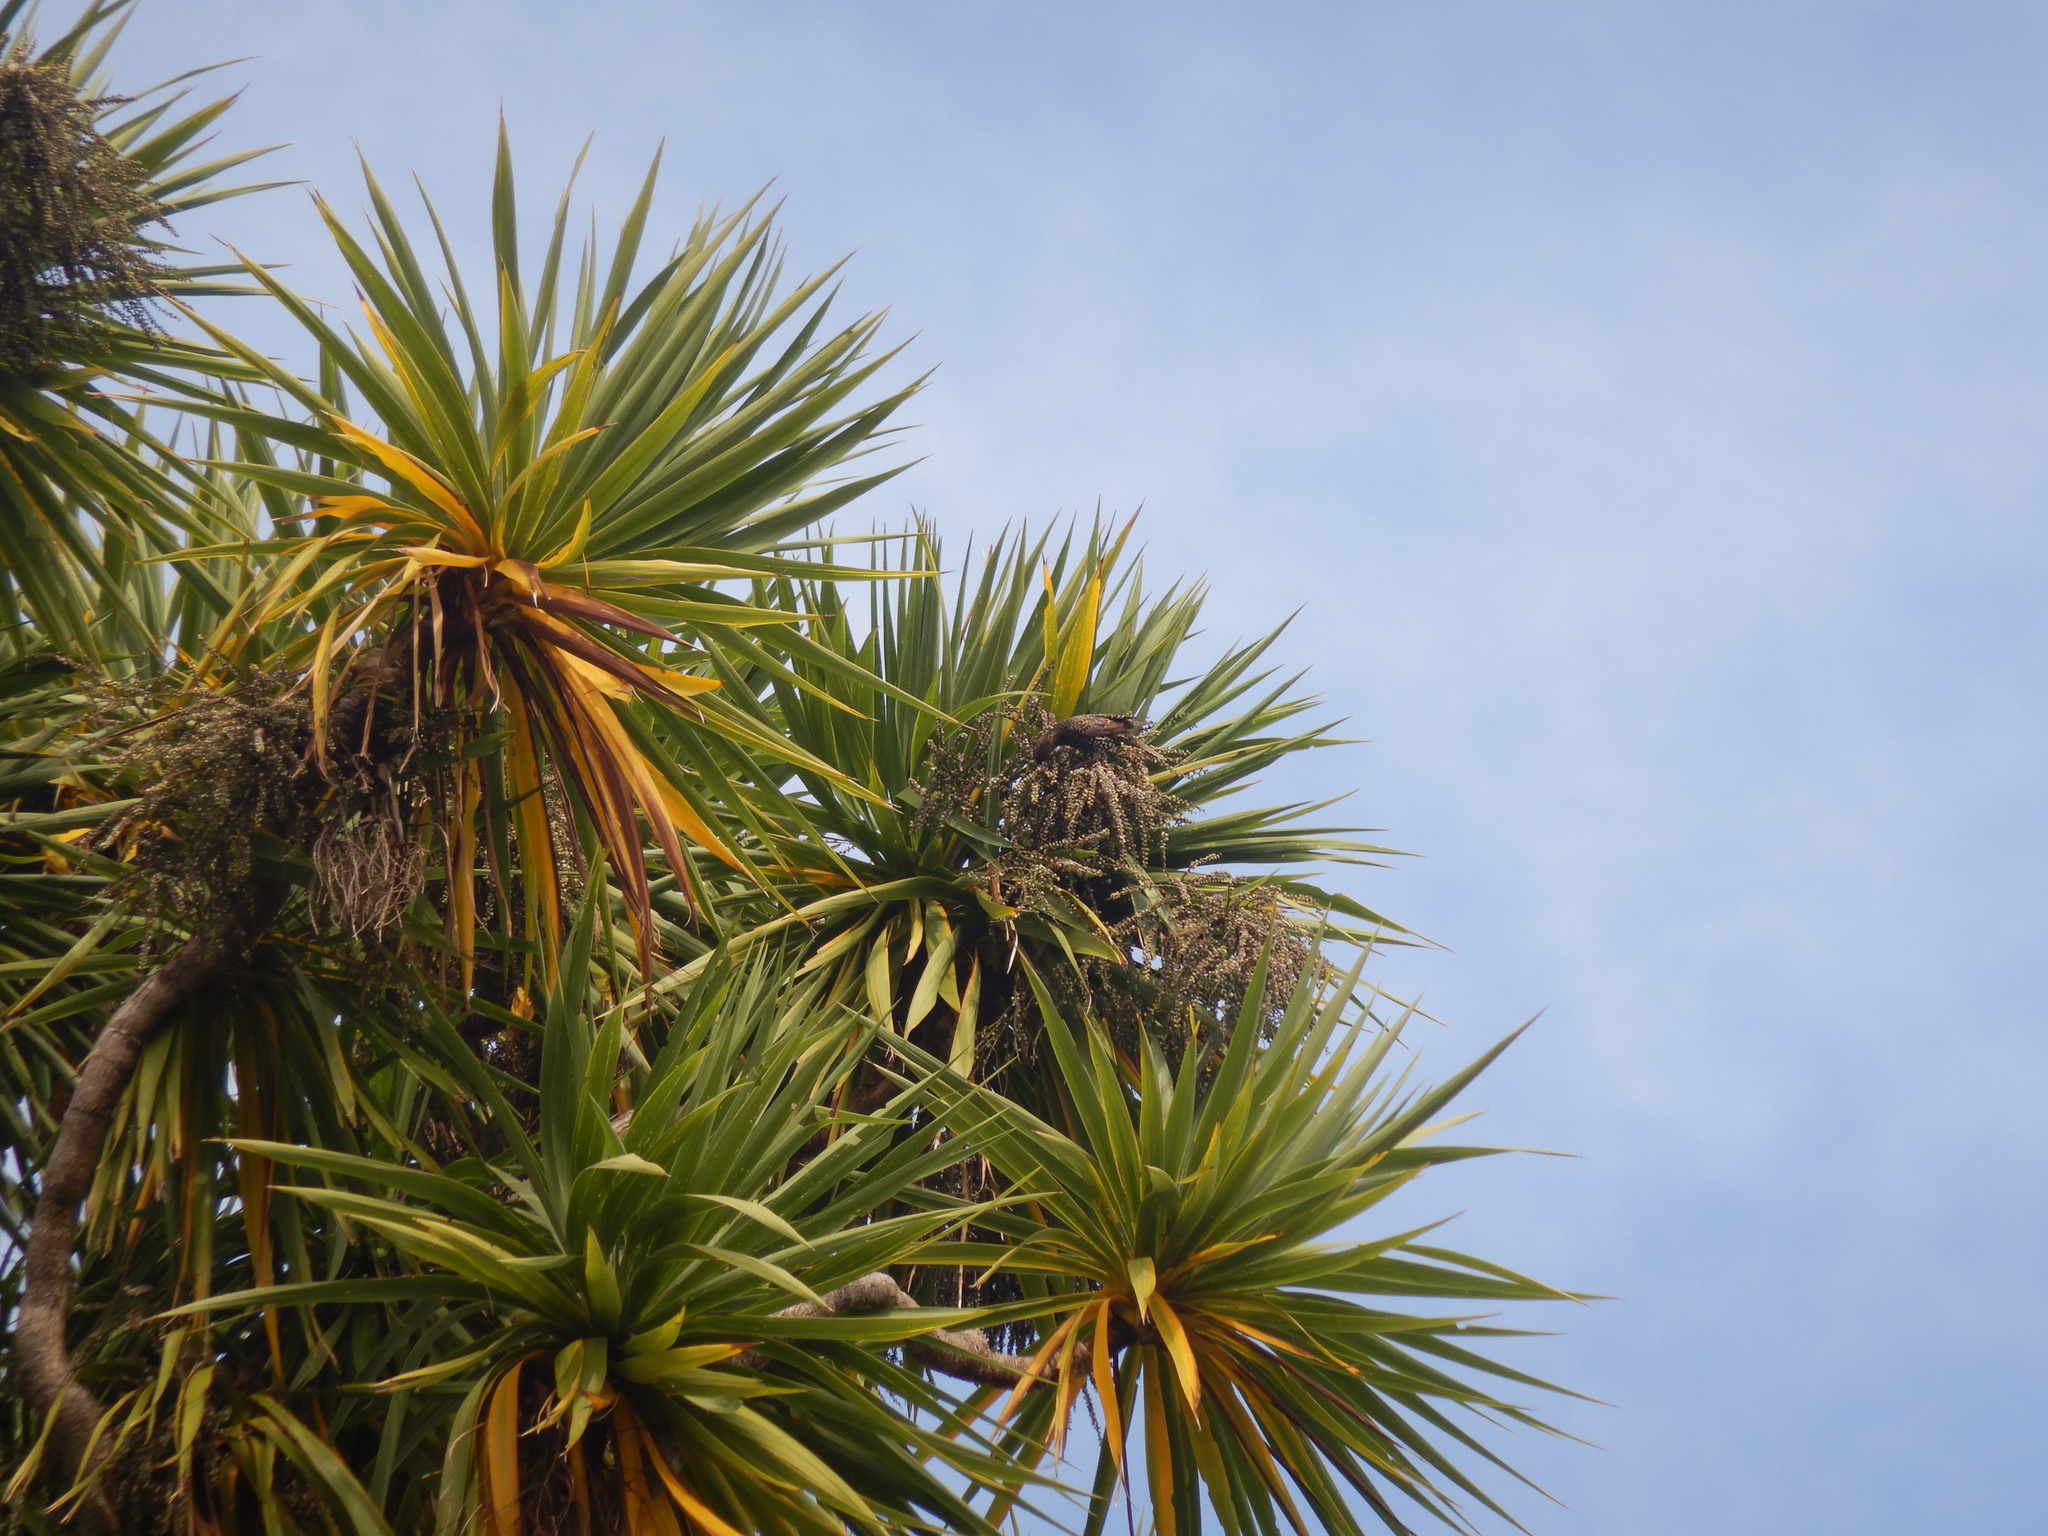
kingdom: Animalia
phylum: Chordata
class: Aves
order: Passeriformes
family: Sturnidae
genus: Sturnus
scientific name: Sturnus vulgaris
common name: Common starling
